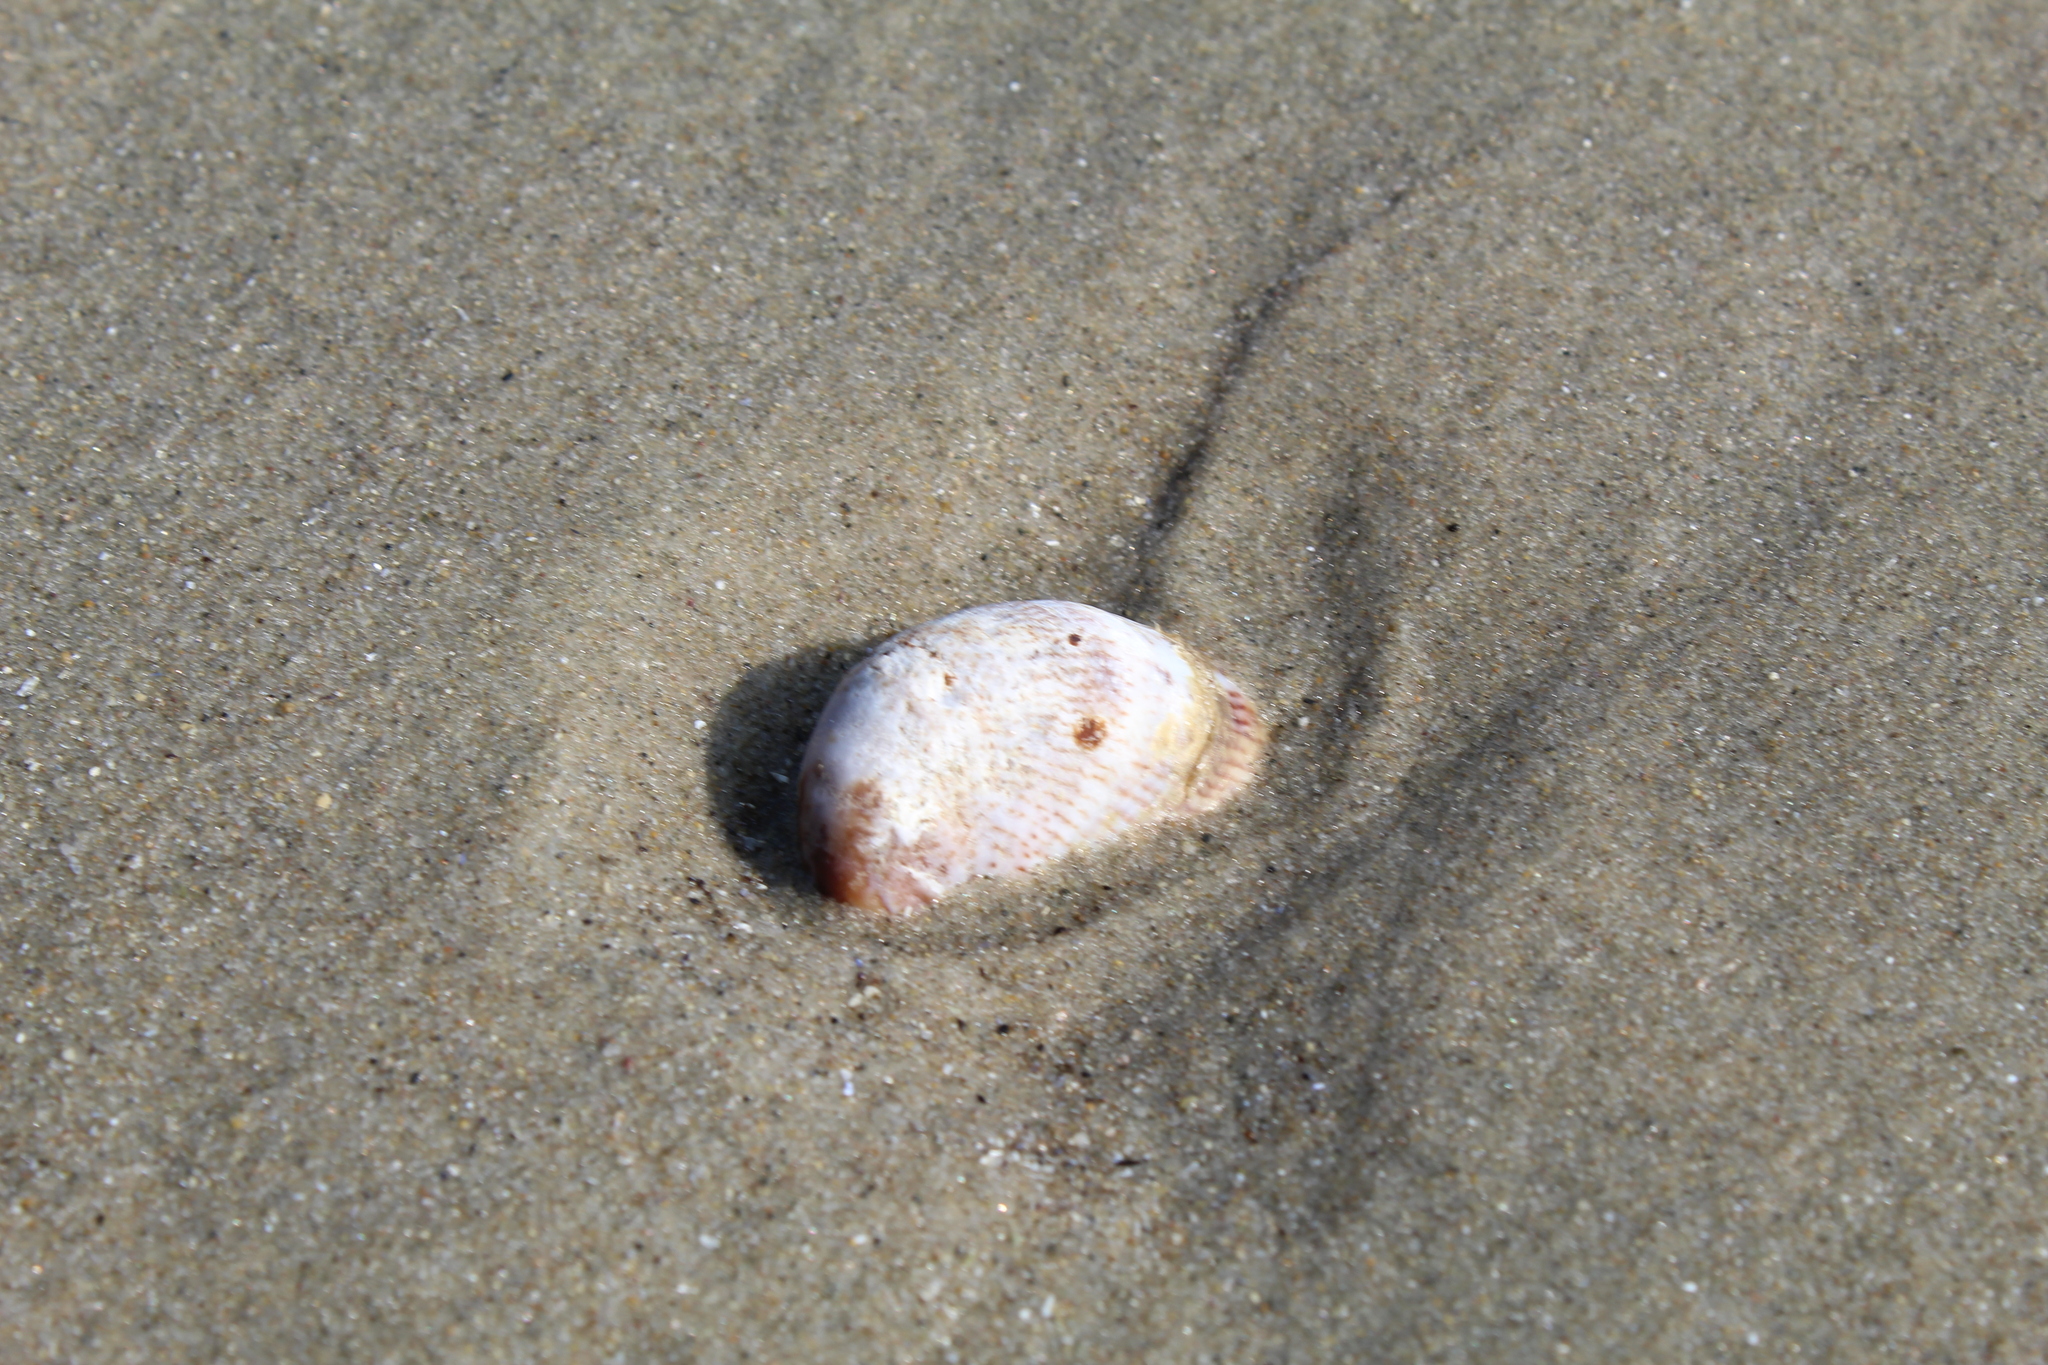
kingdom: Animalia
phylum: Mollusca
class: Gastropoda
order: Littorinimorpha
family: Calyptraeidae
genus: Crepidula
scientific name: Crepidula fornicata
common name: Slipper limpet
